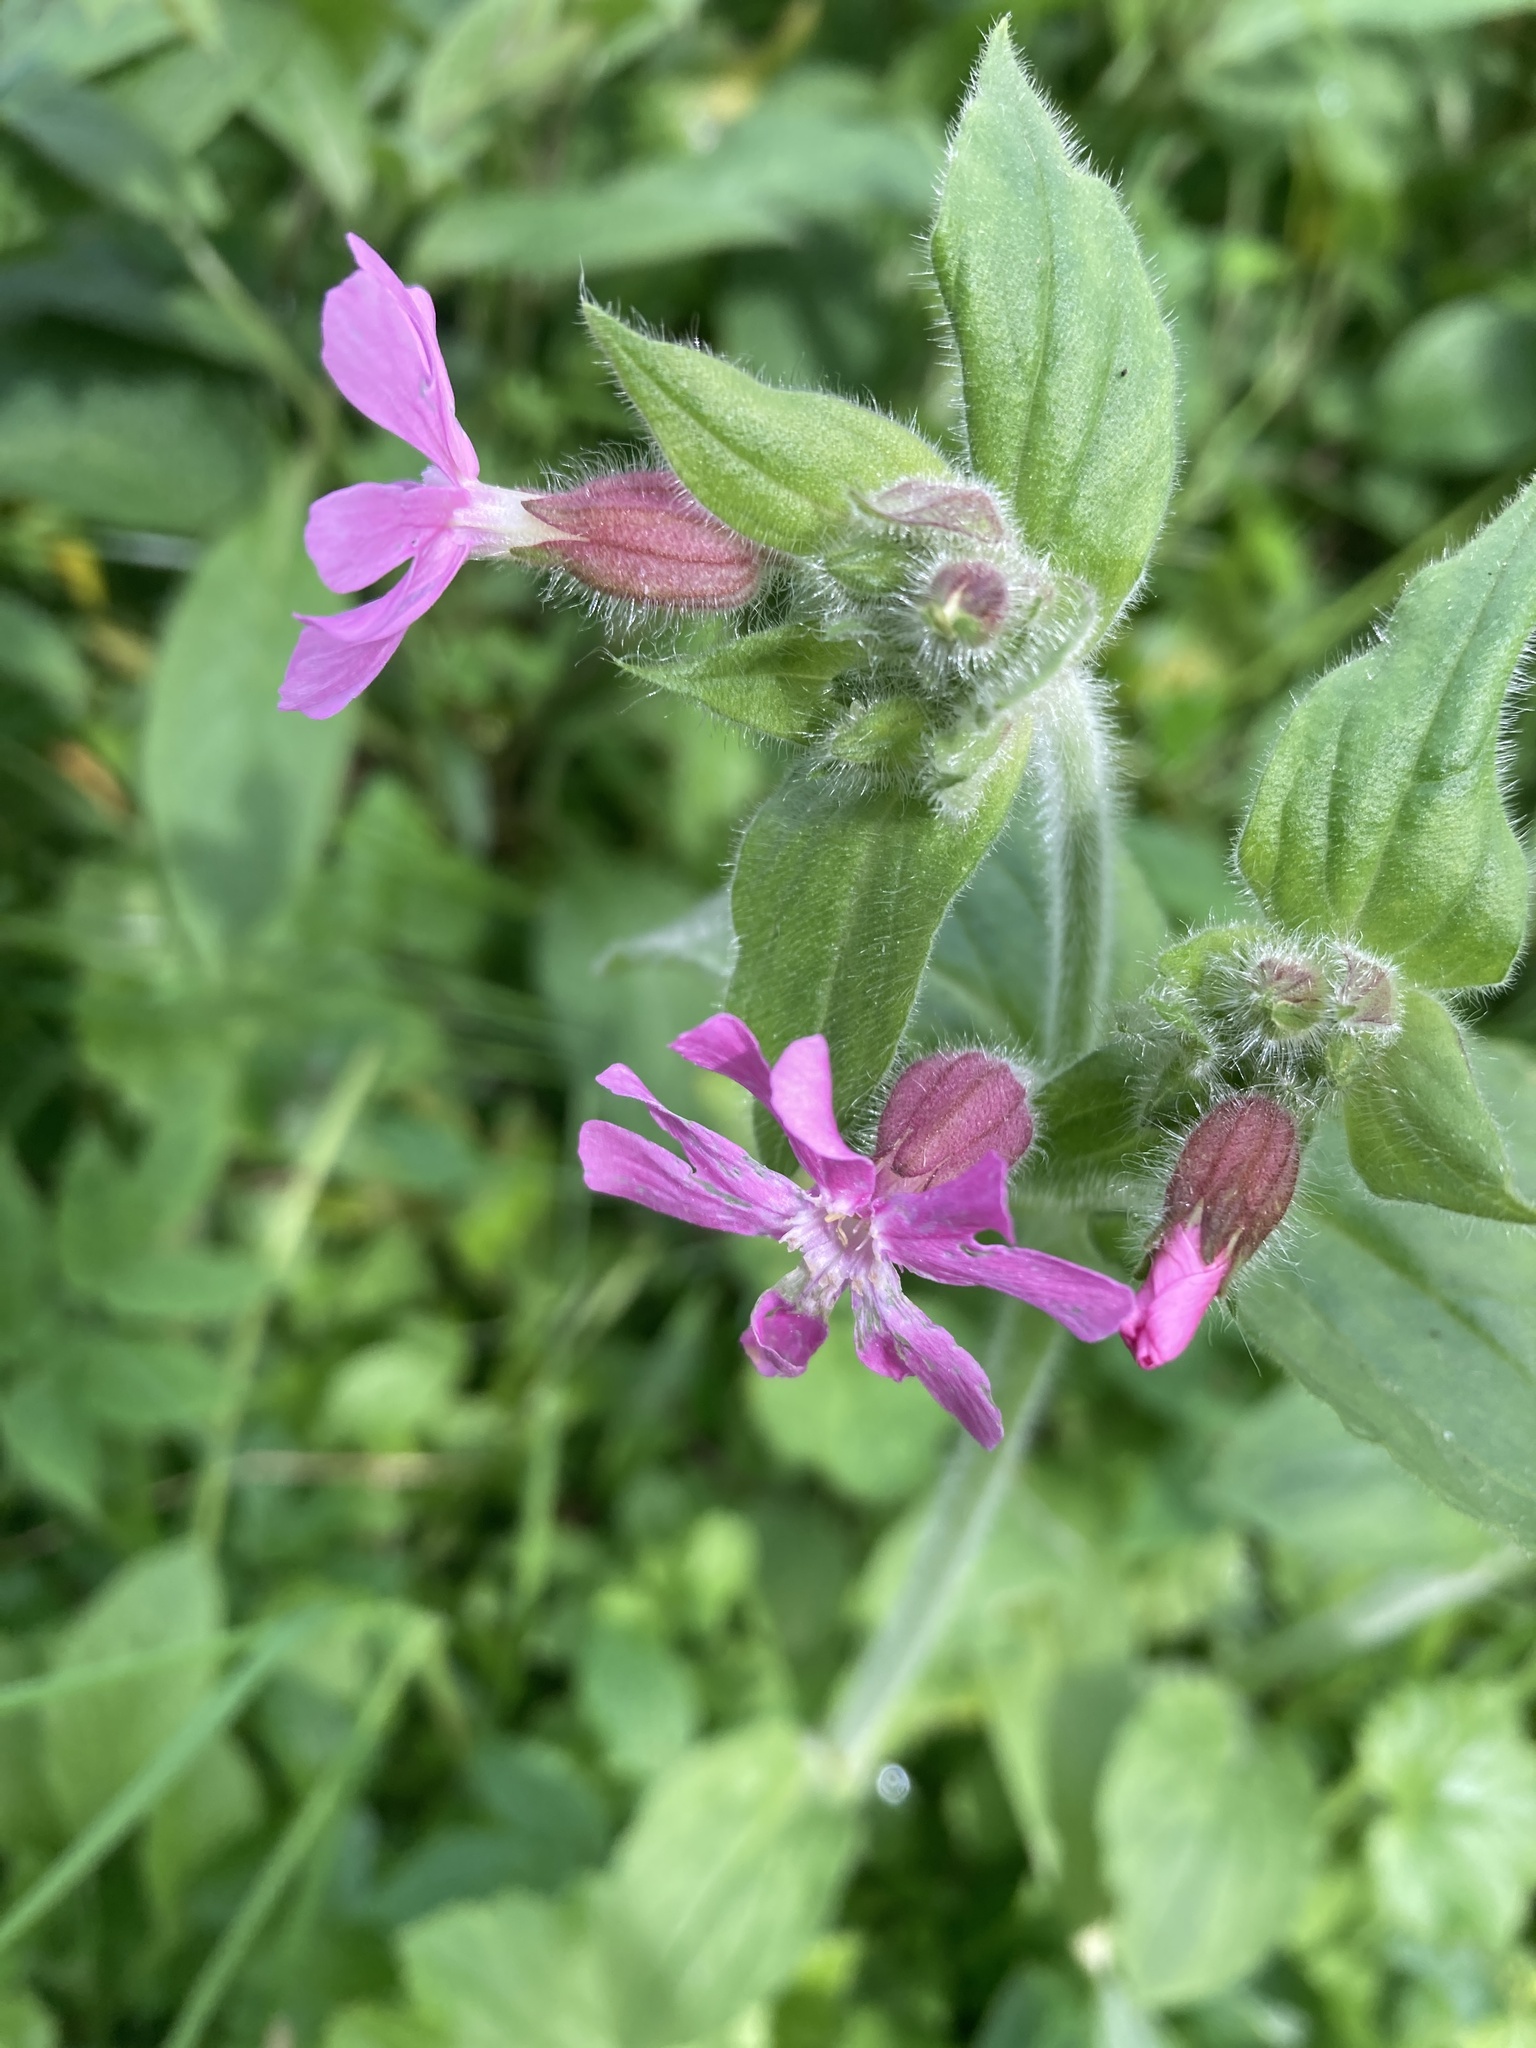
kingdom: Plantae
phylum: Tracheophyta
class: Magnoliopsida
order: Caryophyllales
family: Caryophyllaceae
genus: Silene
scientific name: Silene dioica
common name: Red campion
